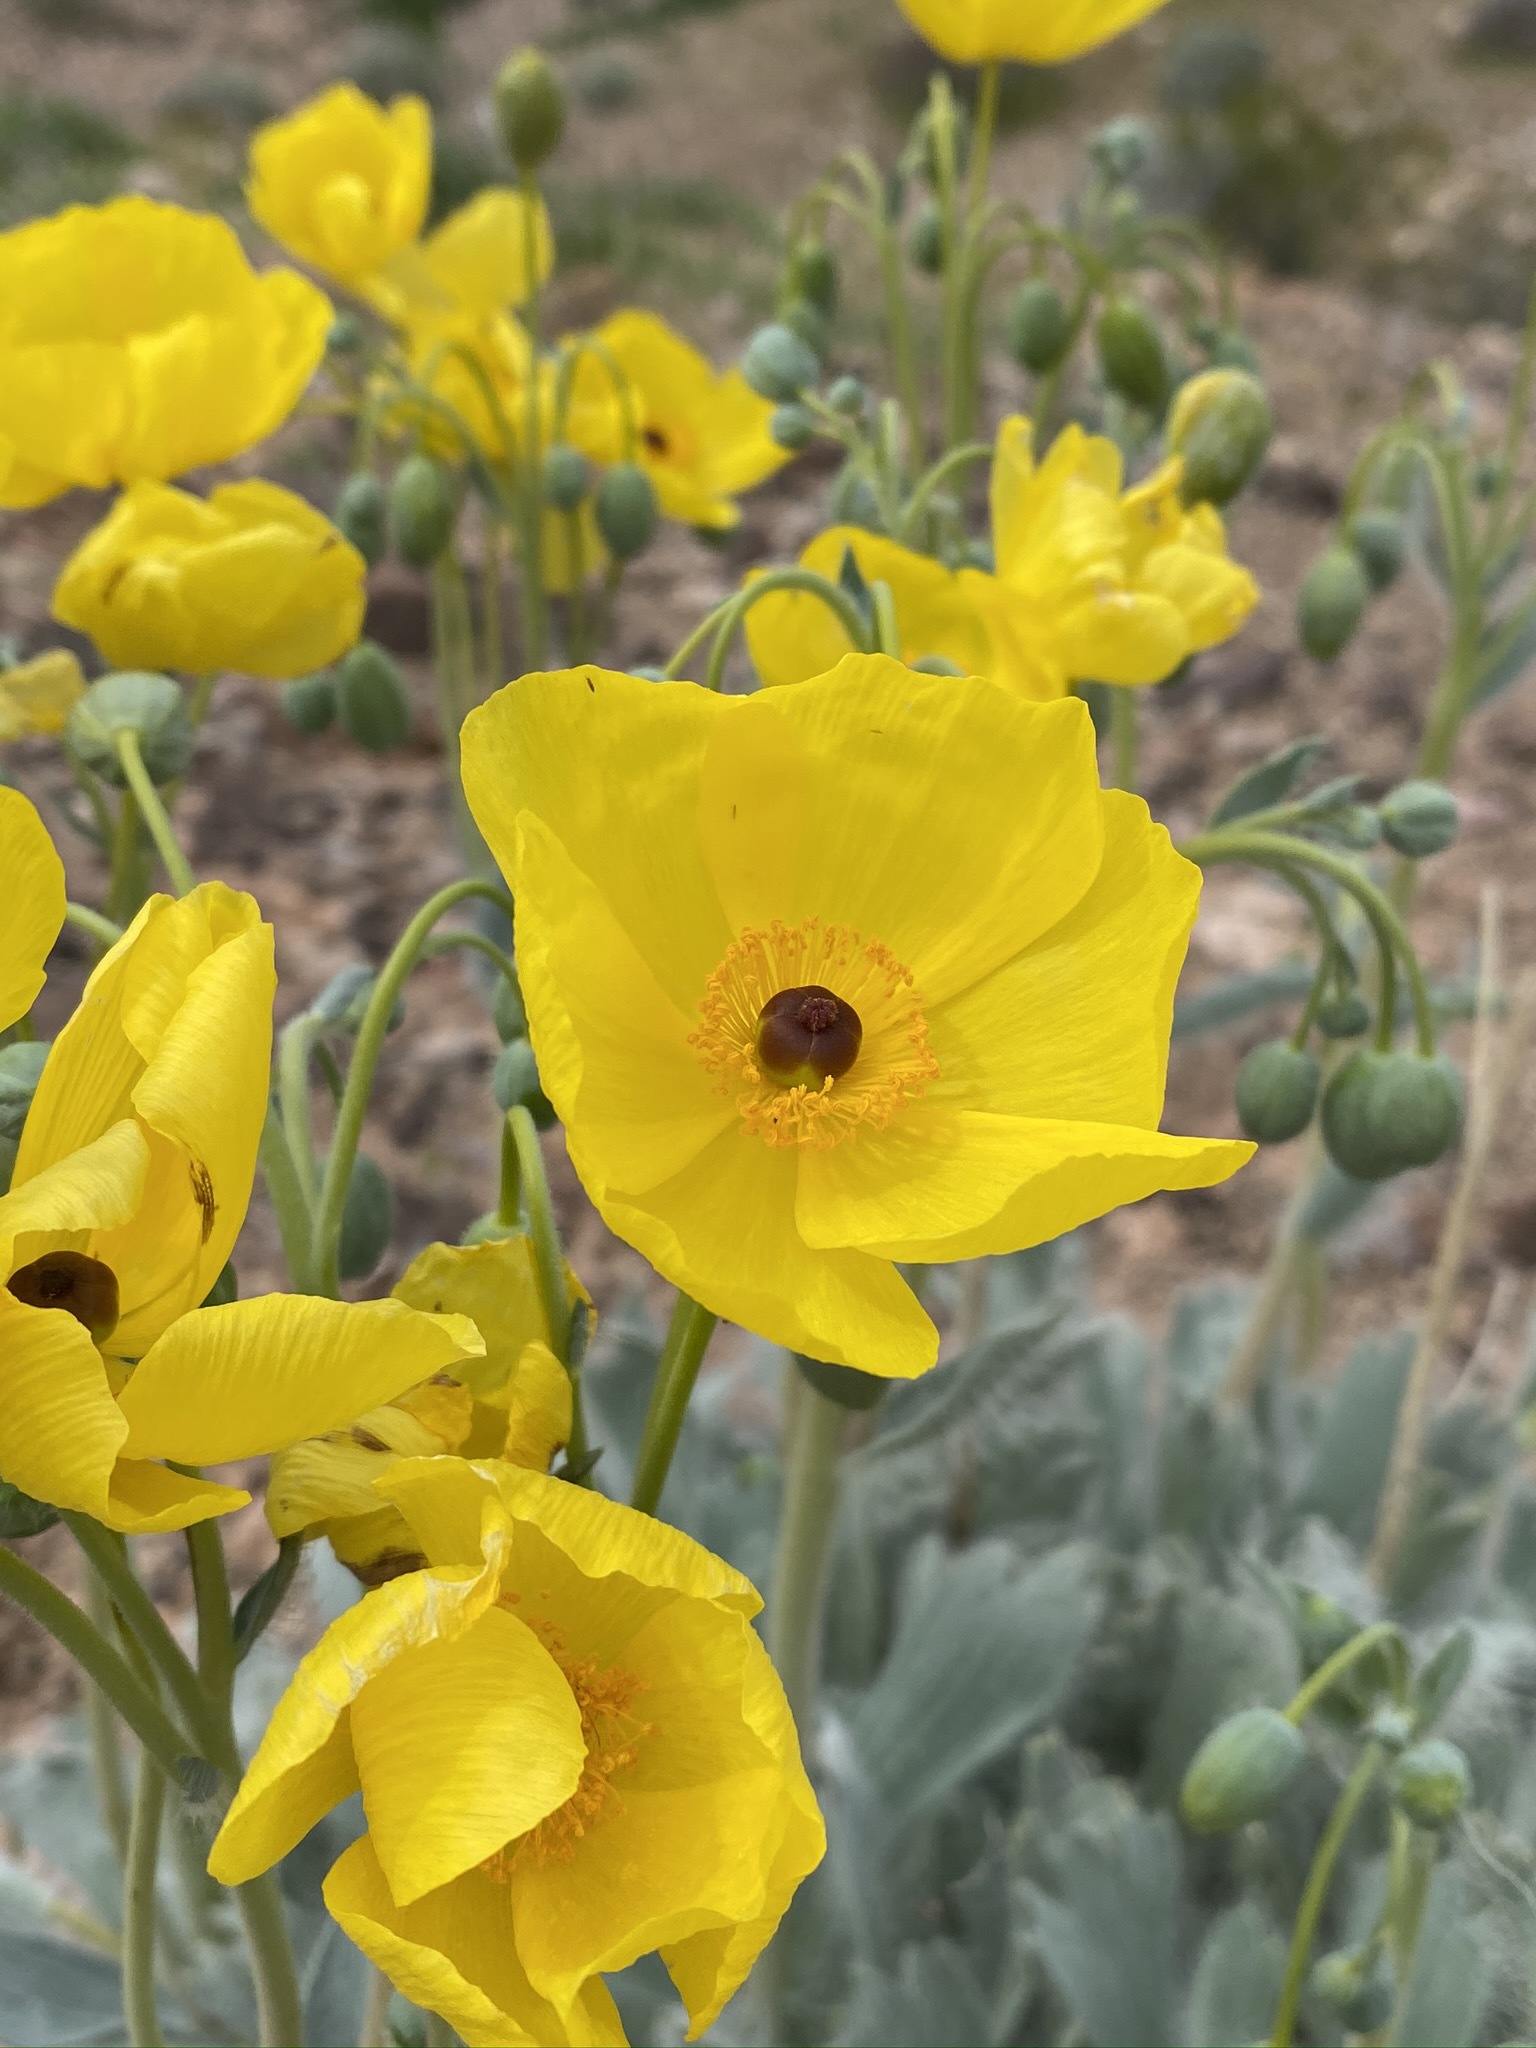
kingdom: Plantae
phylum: Tracheophyta
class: Magnoliopsida
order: Ranunculales
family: Papaveraceae
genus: Arctomecon
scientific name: Arctomecon californicum
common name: Golden bearclaw-poppy
